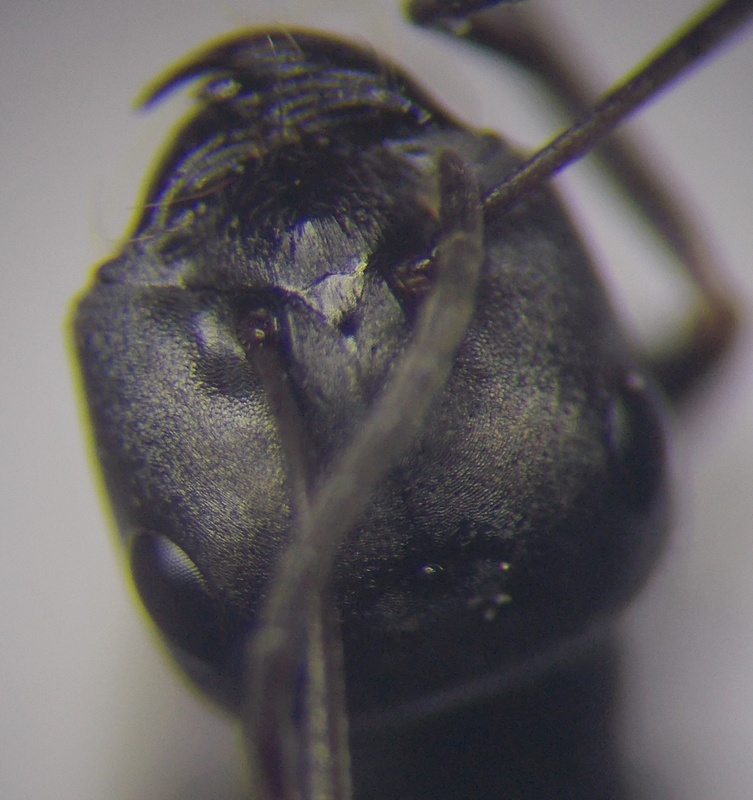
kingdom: Animalia
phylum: Arthropoda
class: Insecta
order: Hymenoptera
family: Formicidae
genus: Cataglyphis
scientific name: Cataglyphis aenescens
